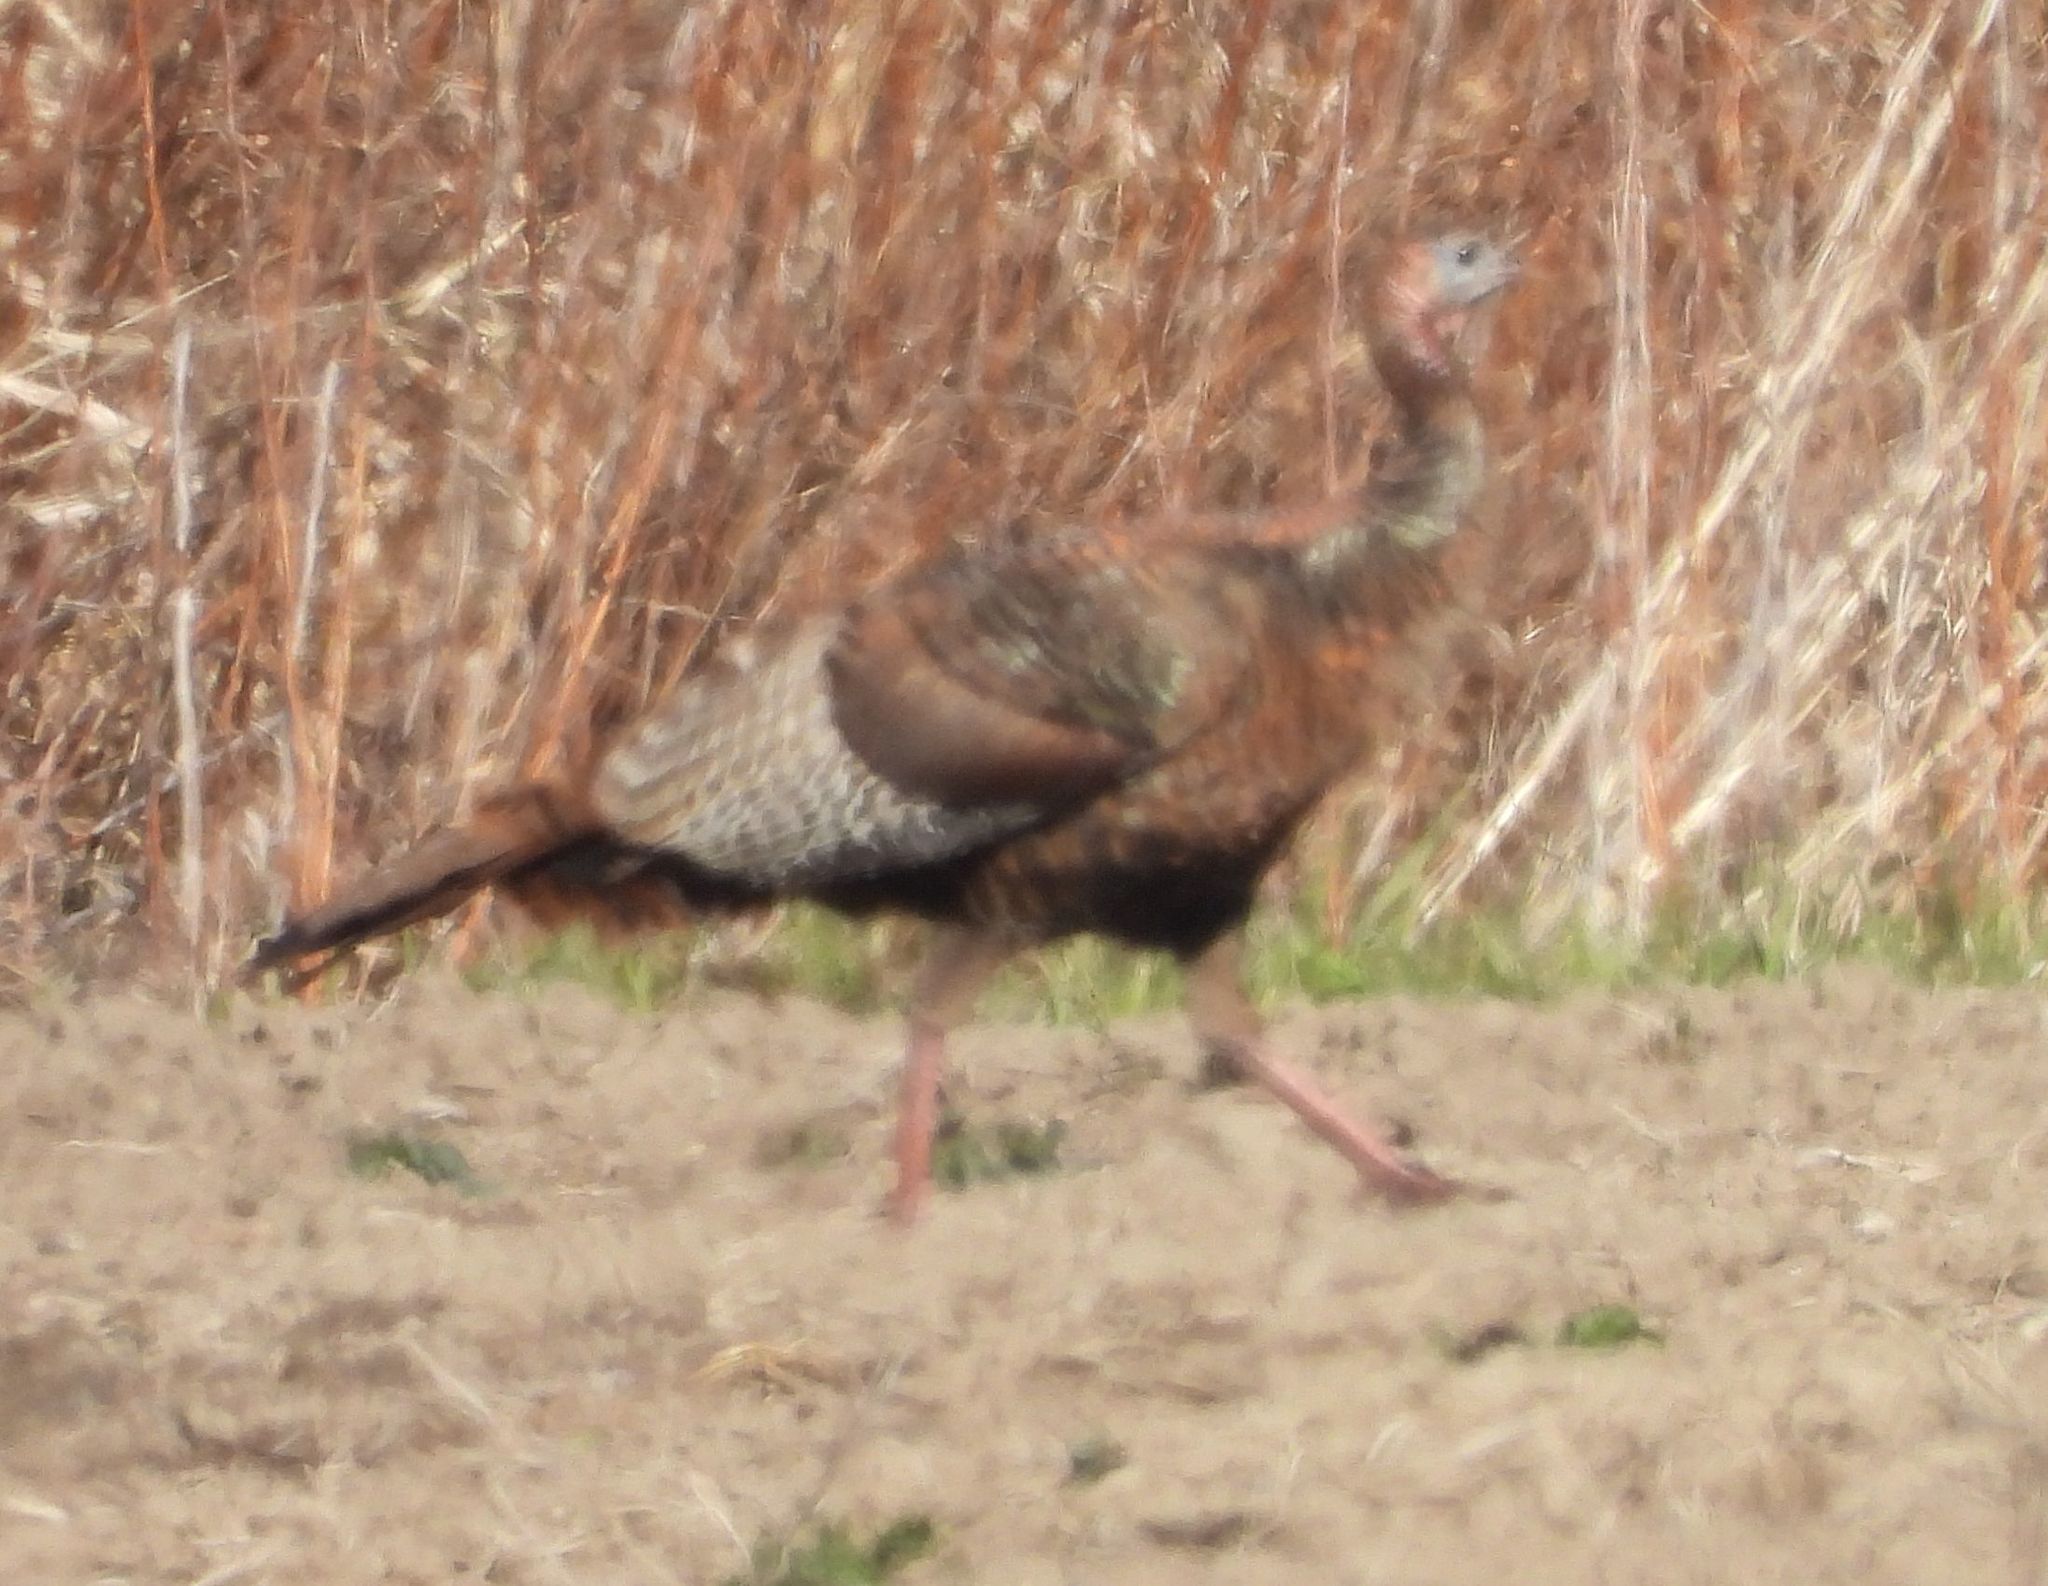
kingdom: Animalia
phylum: Chordata
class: Aves
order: Galliformes
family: Phasianidae
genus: Meleagris
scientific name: Meleagris gallopavo
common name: Wild turkey
